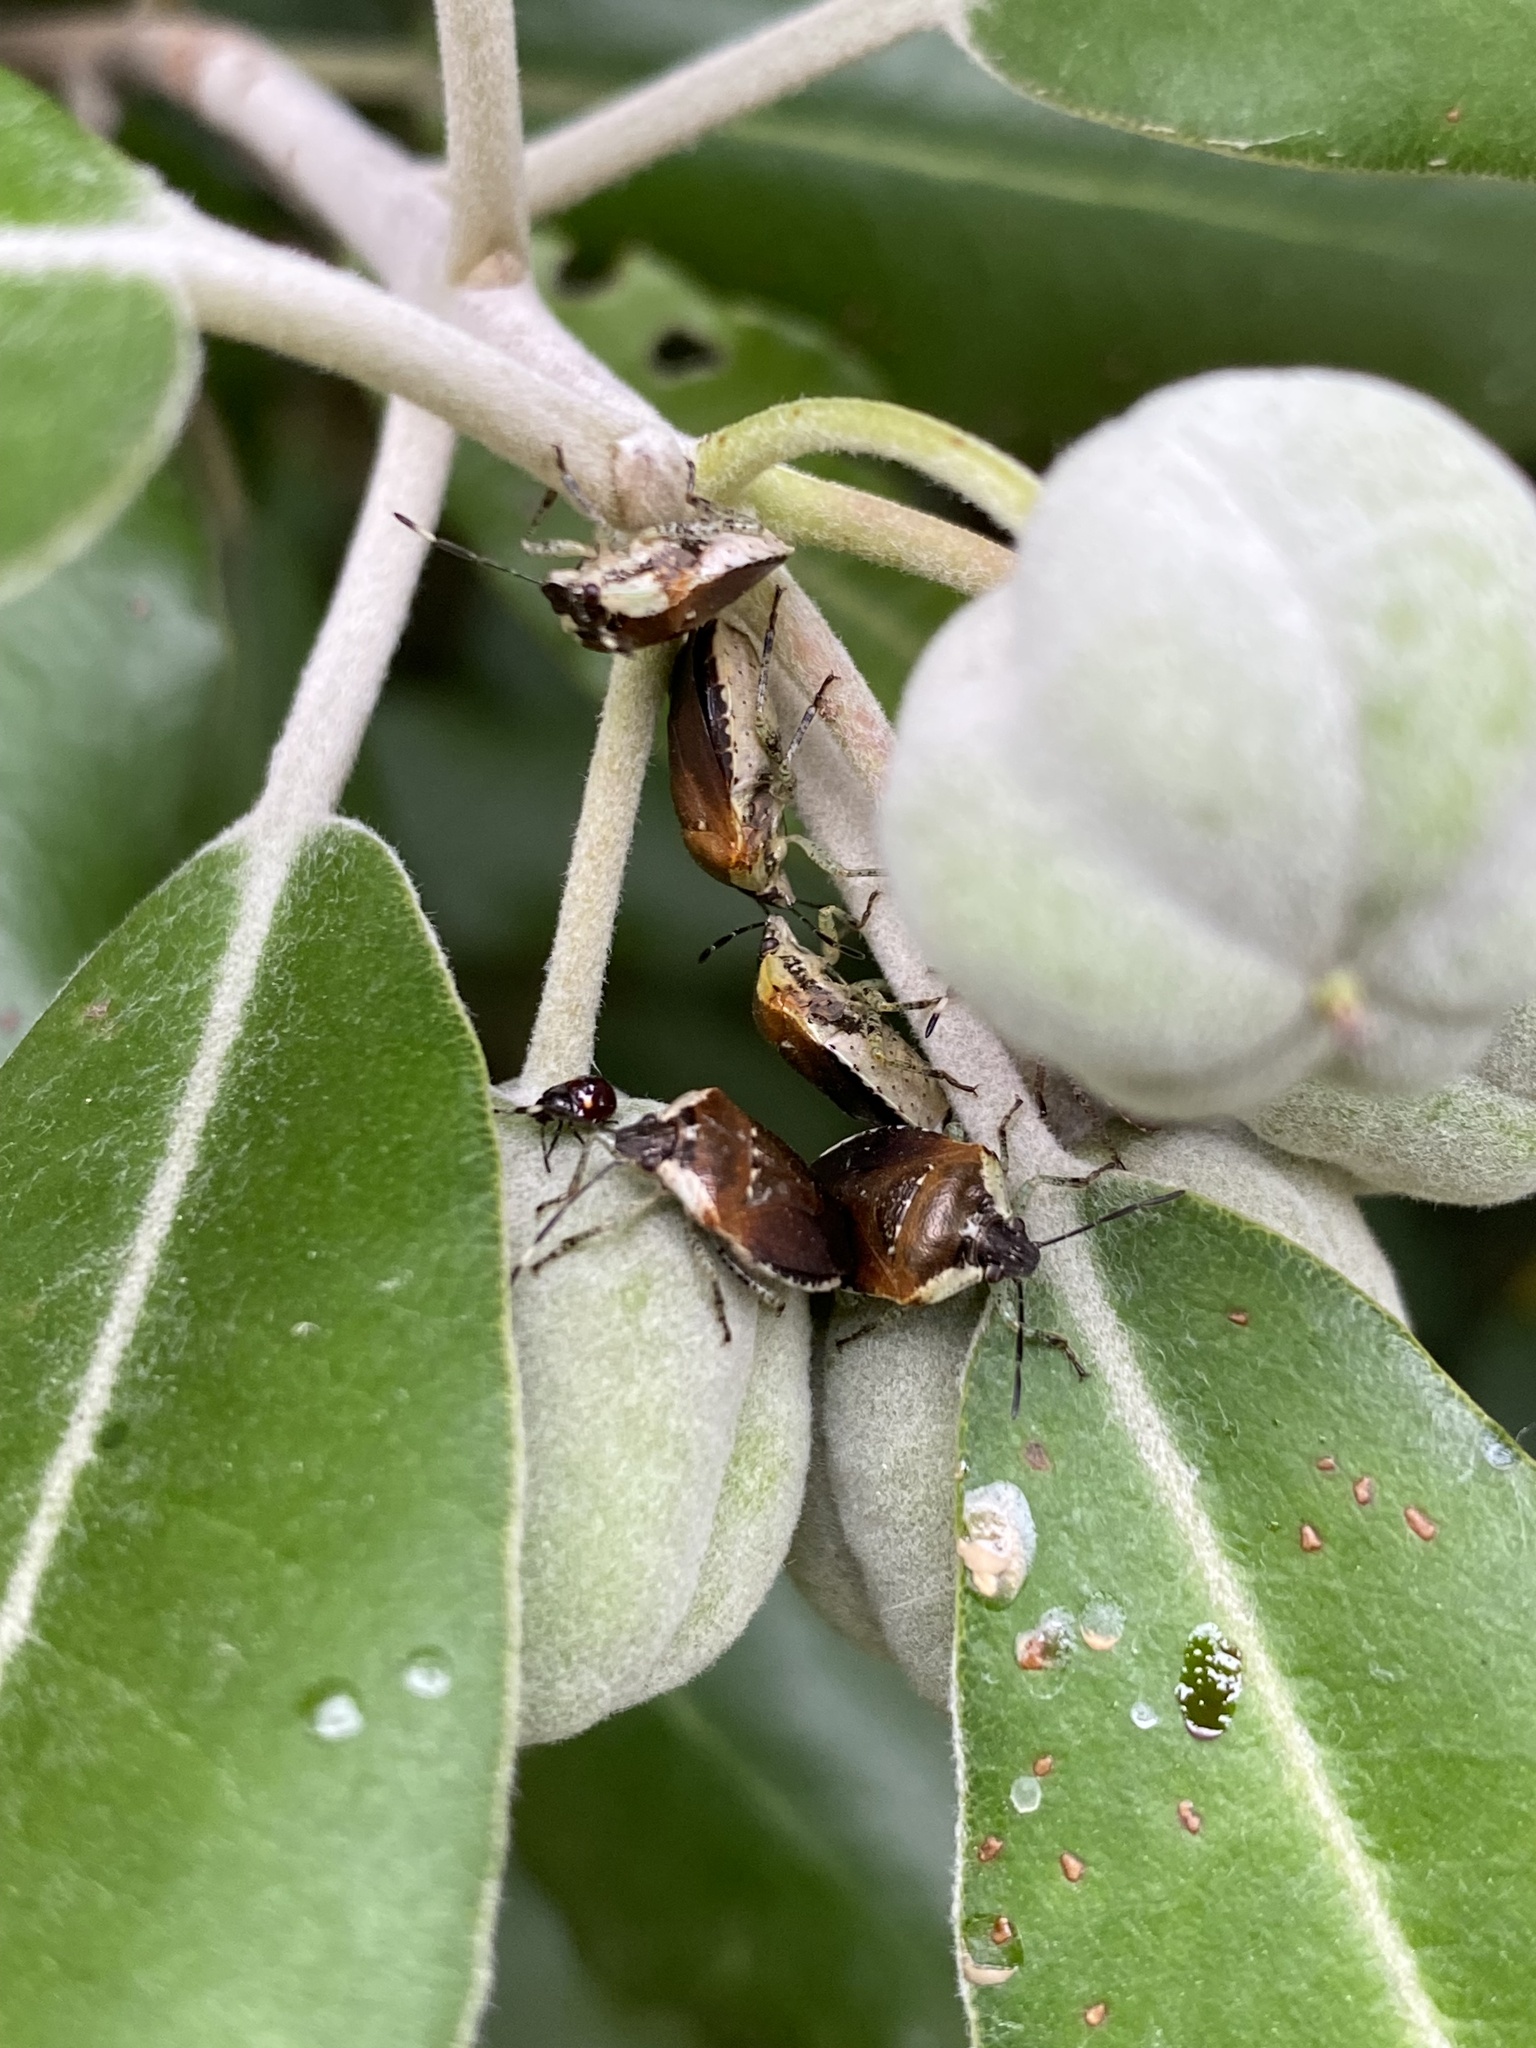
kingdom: Animalia
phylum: Arthropoda
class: Insecta
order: Hemiptera
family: Pentatomidae
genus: Monteithiella
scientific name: Monteithiella
